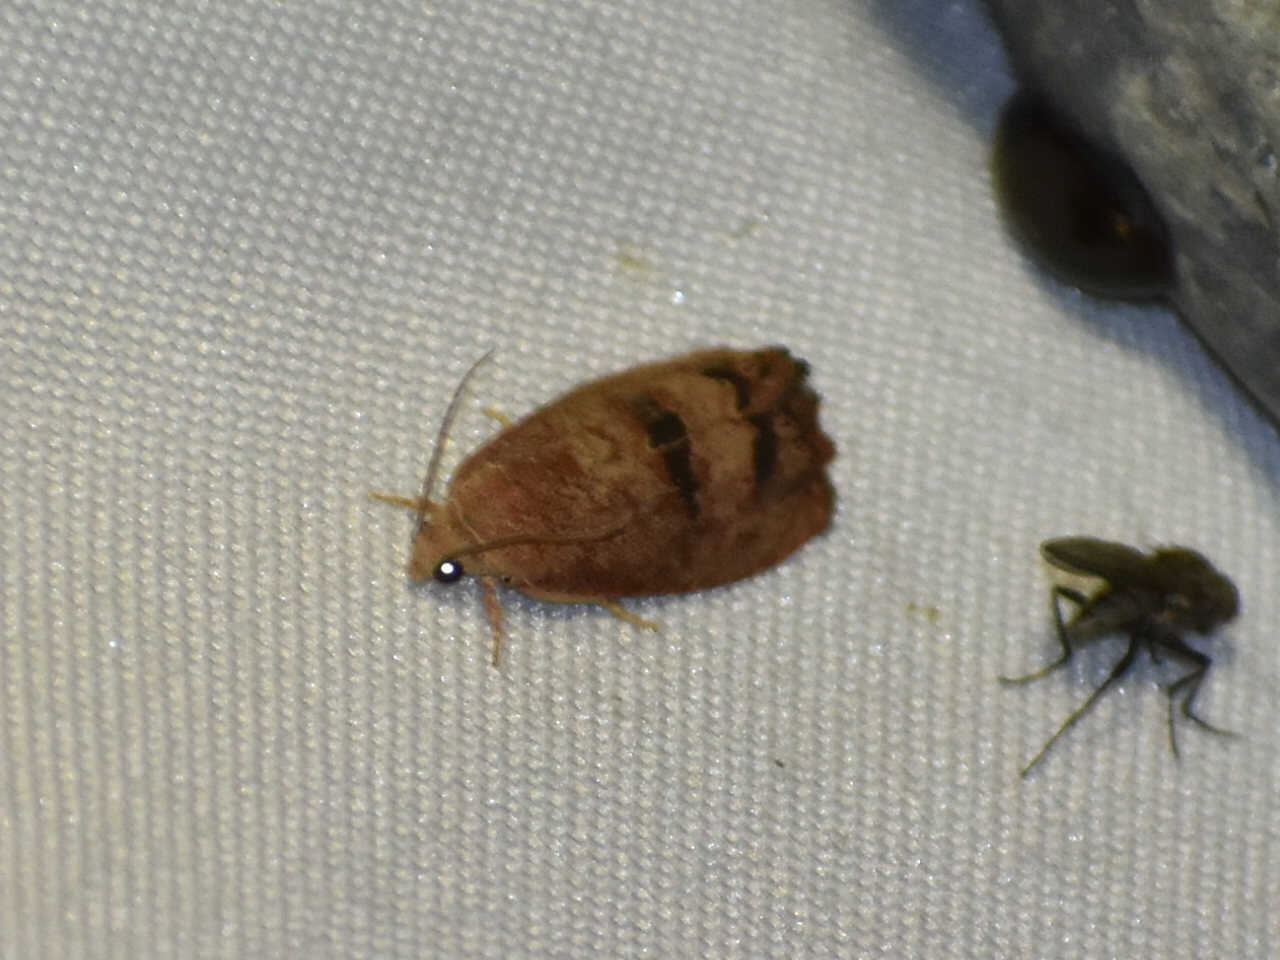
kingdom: Animalia
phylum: Arthropoda
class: Insecta
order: Lepidoptera
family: Tortricidae
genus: Cydia
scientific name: Cydia latiferreana
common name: Filbertworm moth
